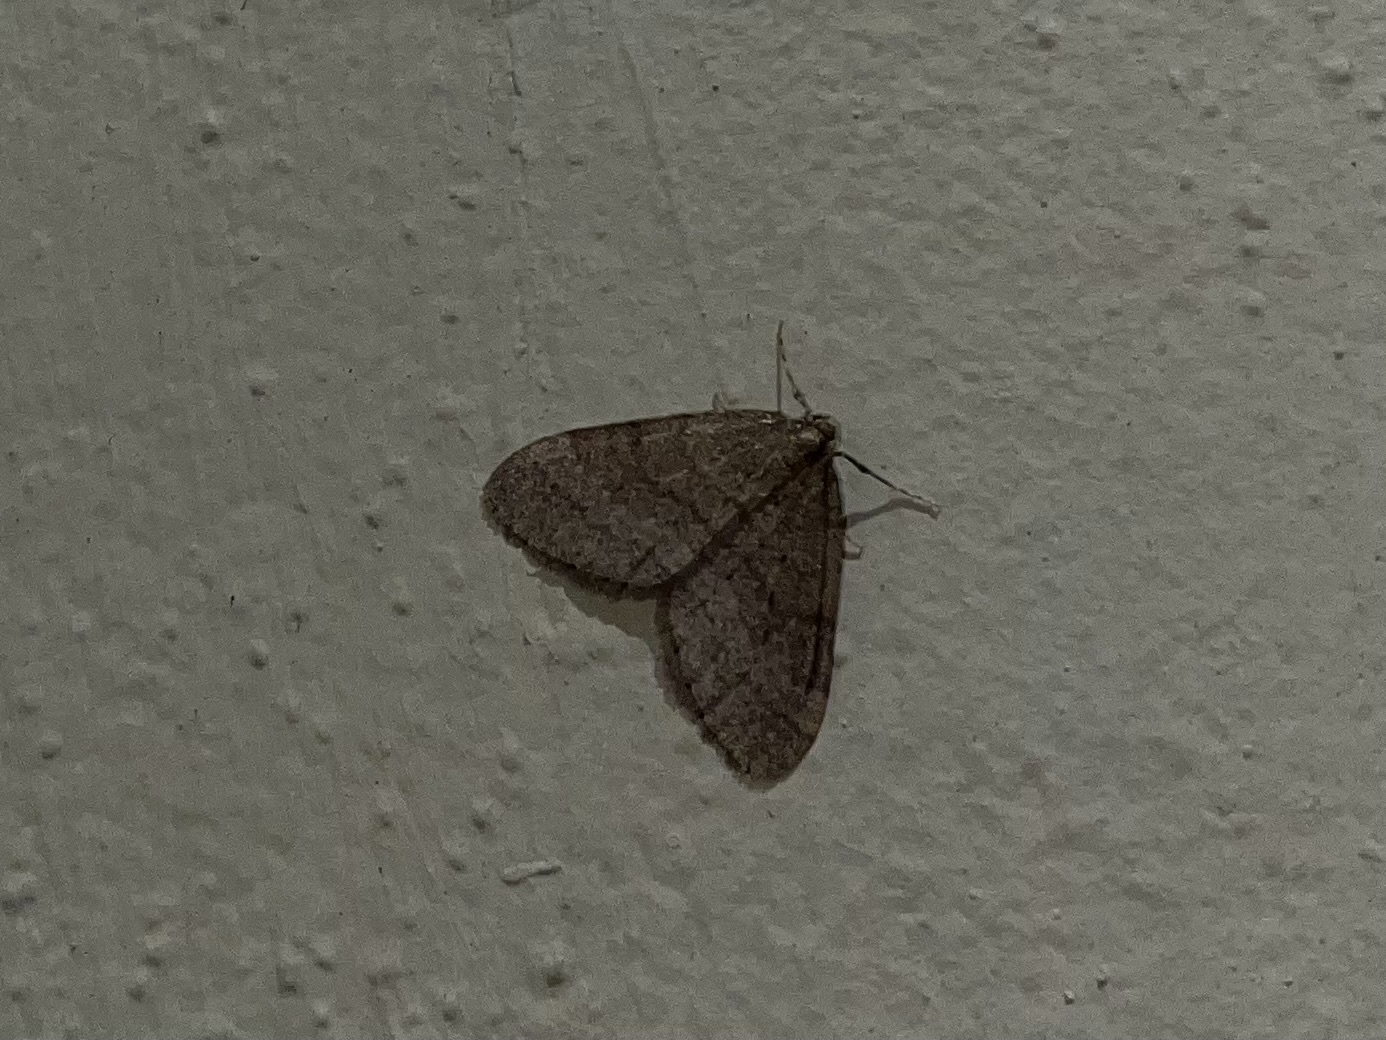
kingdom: Animalia
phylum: Arthropoda
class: Insecta
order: Lepidoptera
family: Geometridae
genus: Operophtera
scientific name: Operophtera brumata
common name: Winter moth
